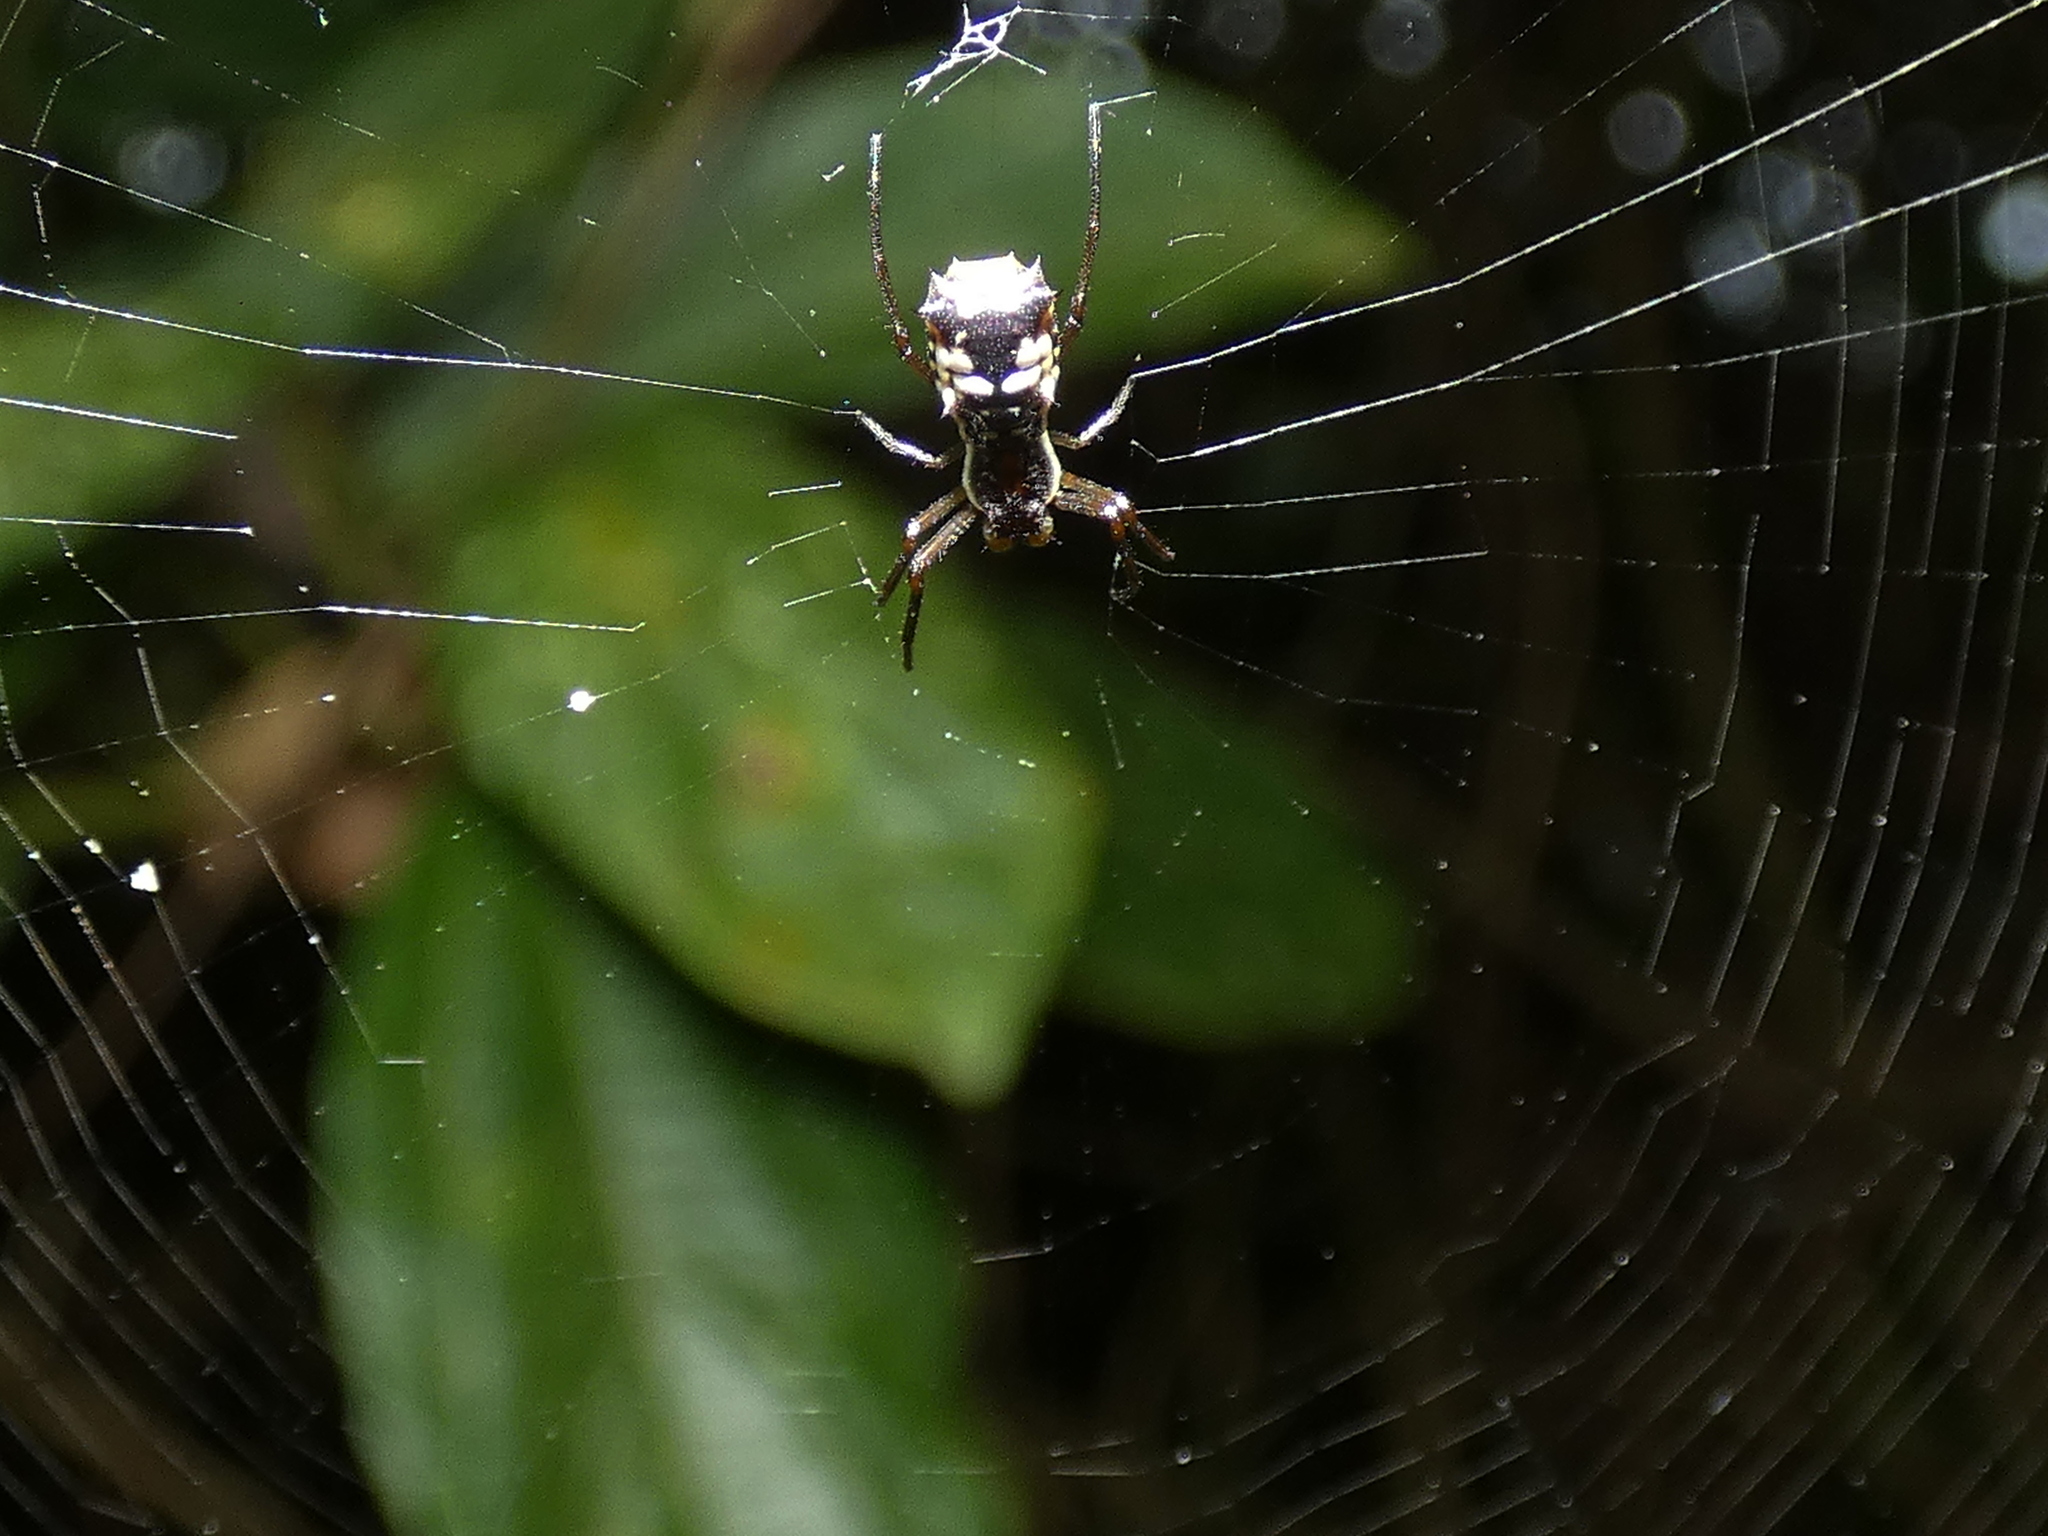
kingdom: Animalia
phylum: Arthropoda
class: Arachnida
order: Araneae
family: Araneidae
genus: Micrathena
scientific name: Micrathena fissispina
